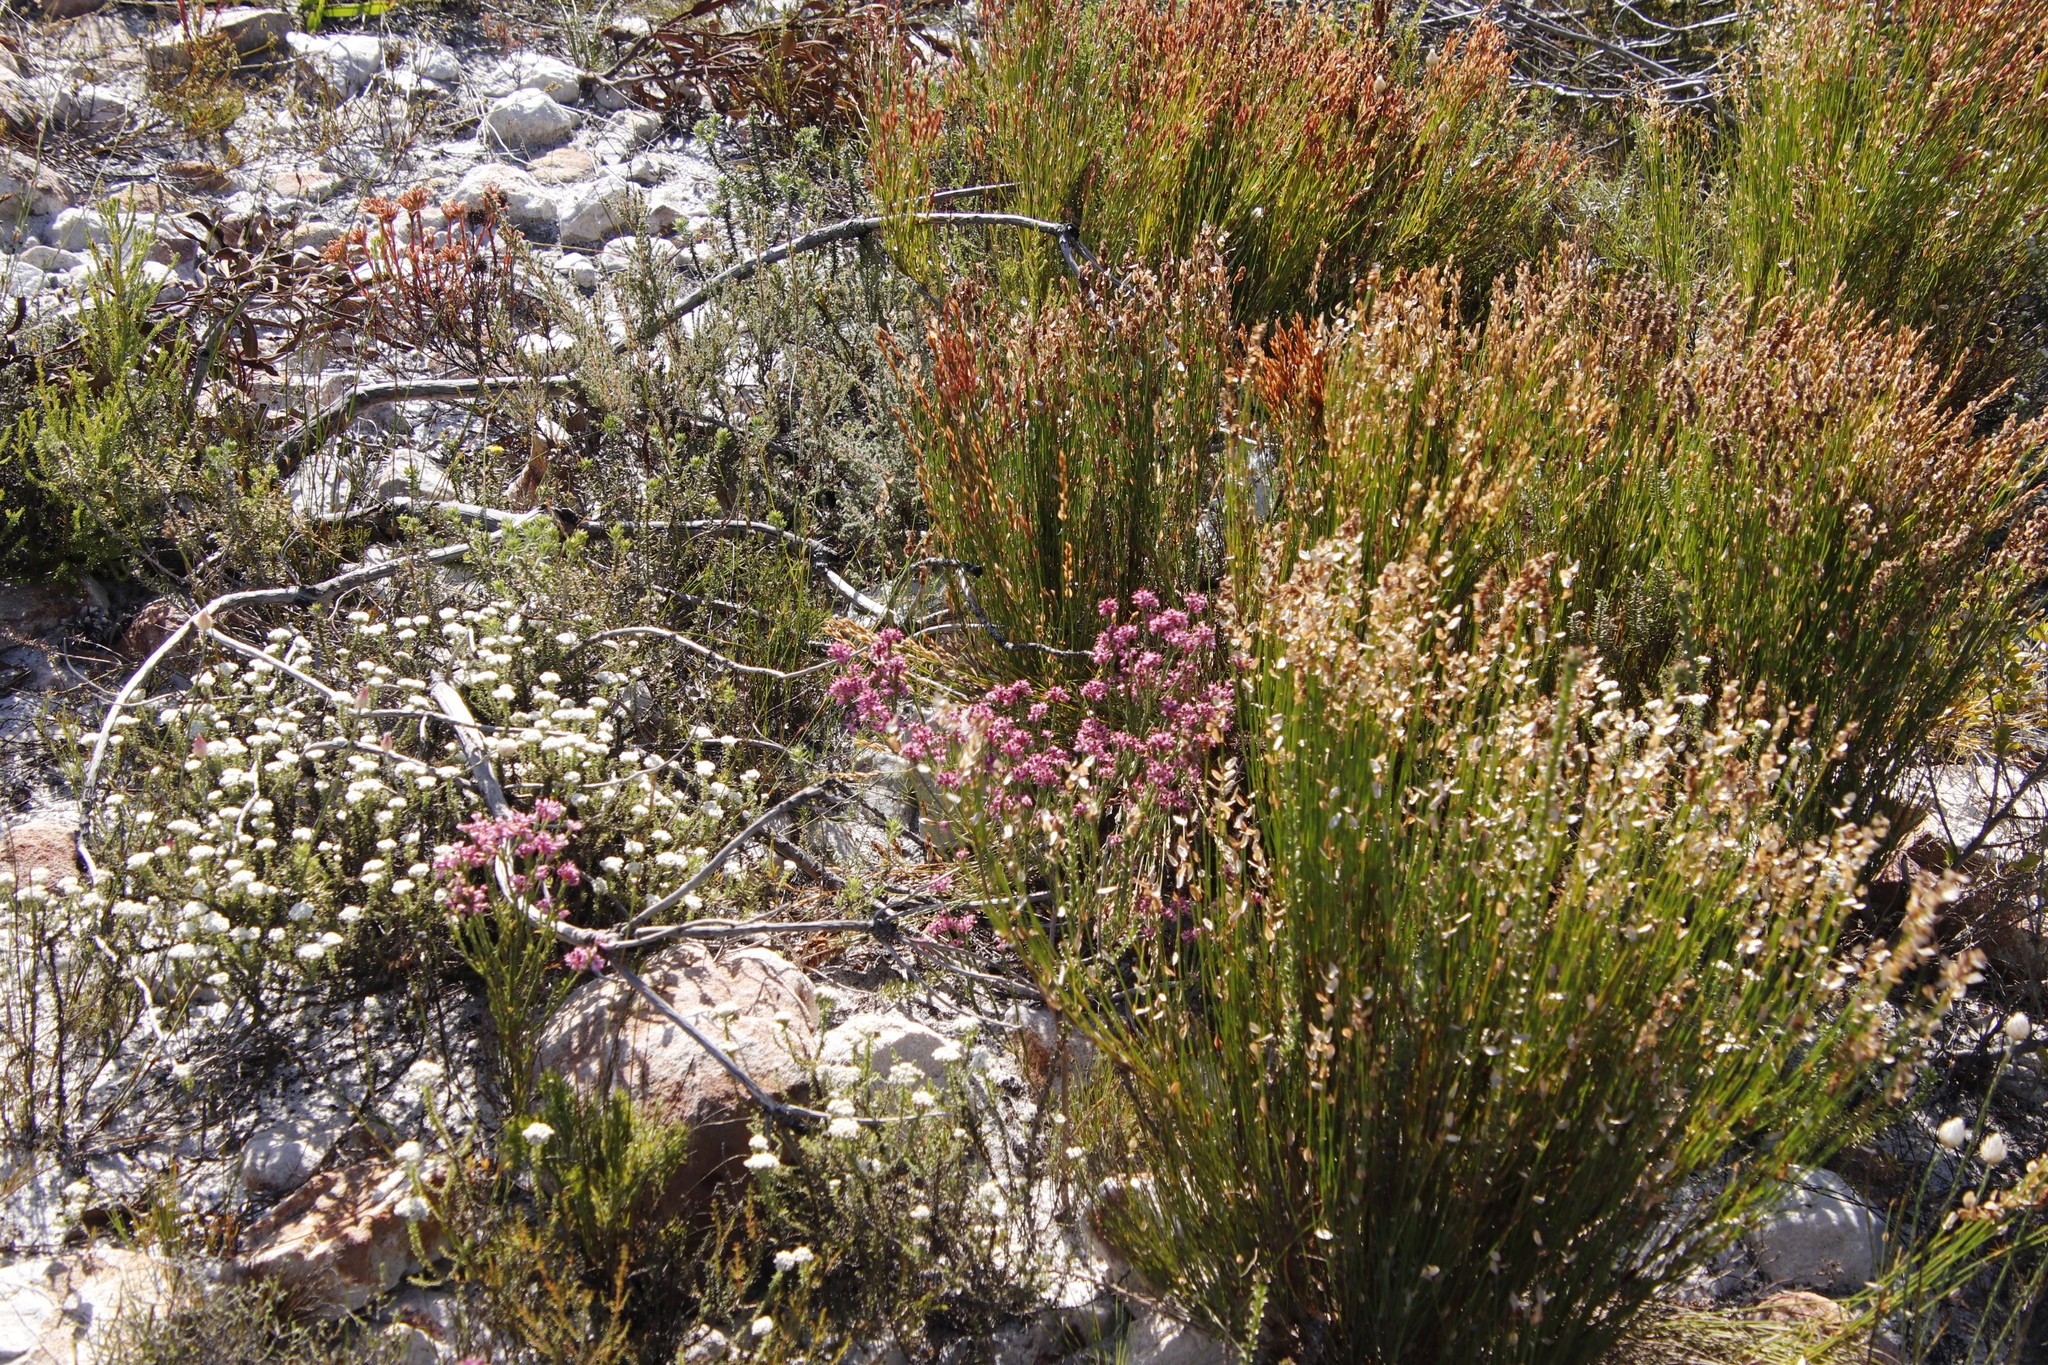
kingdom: Plantae
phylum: Tracheophyta
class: Magnoliopsida
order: Ericales
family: Ericaceae
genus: Erica
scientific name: Erica corifolia
